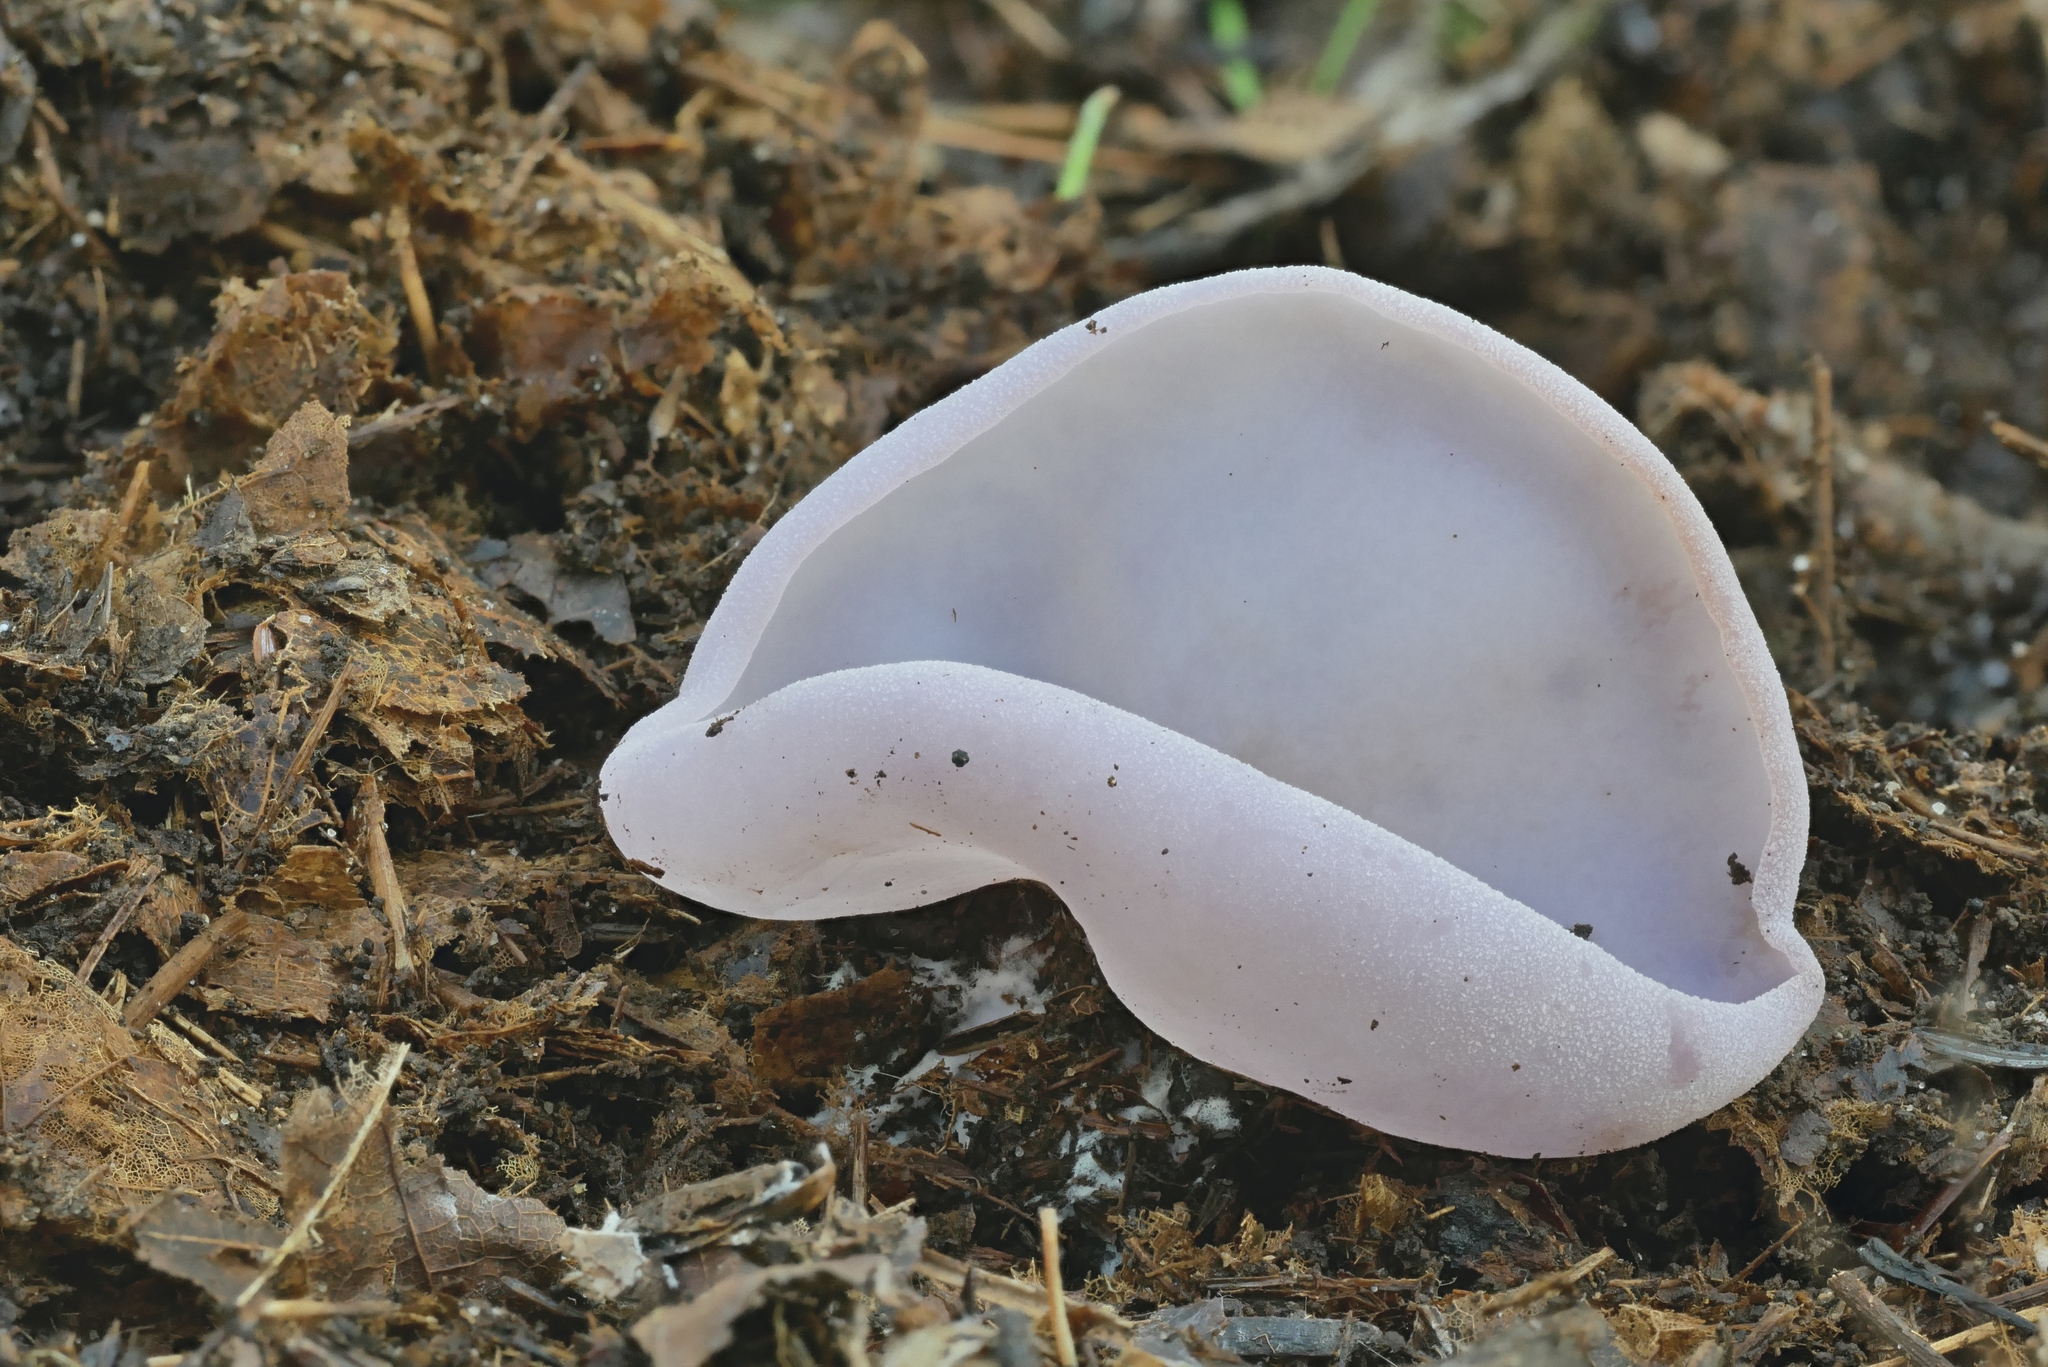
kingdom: Fungi
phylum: Ascomycota
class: Pezizomycetes
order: Pezizales
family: Pezizaceae
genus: Peziza
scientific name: Peziza griseorosea
